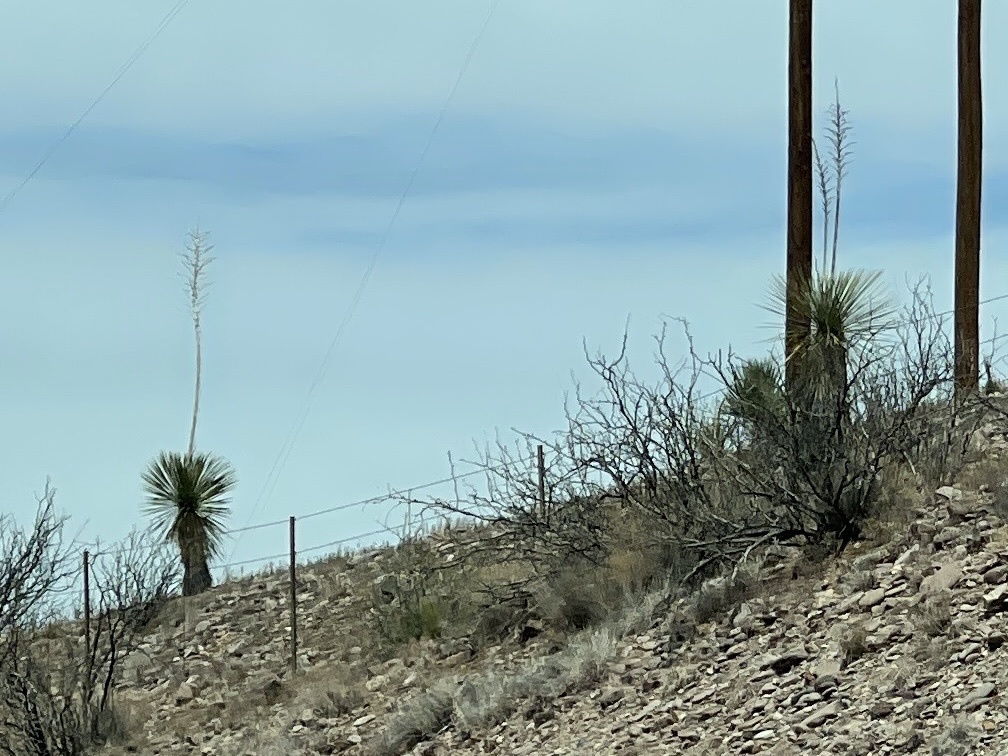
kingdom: Plantae
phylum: Tracheophyta
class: Liliopsida
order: Asparagales
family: Asparagaceae
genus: Yucca
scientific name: Yucca elata
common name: Palmella
